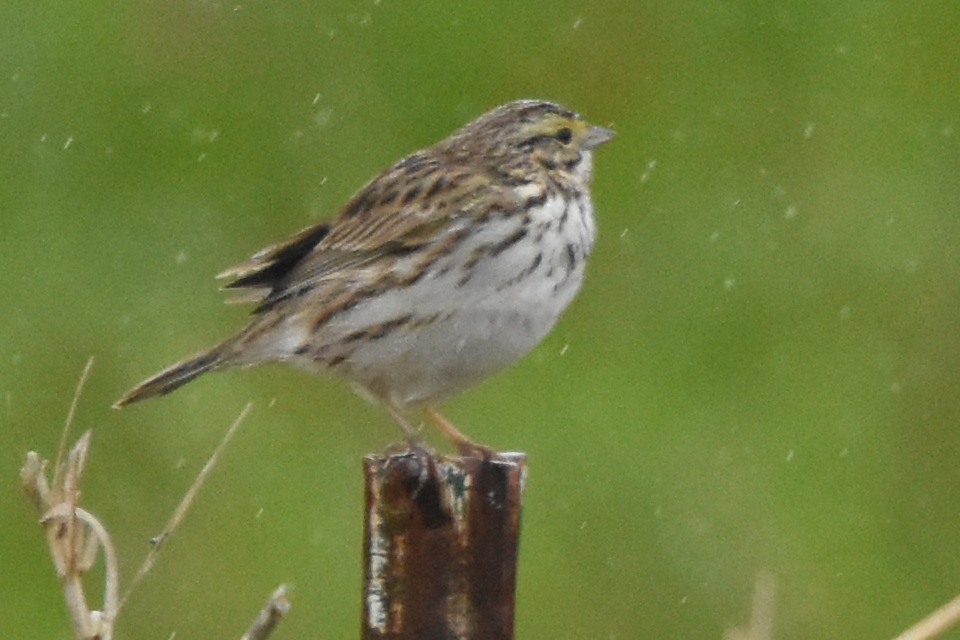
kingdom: Animalia
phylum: Chordata
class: Aves
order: Passeriformes
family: Passerellidae
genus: Passerculus
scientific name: Passerculus sandwichensis
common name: Savannah sparrow
